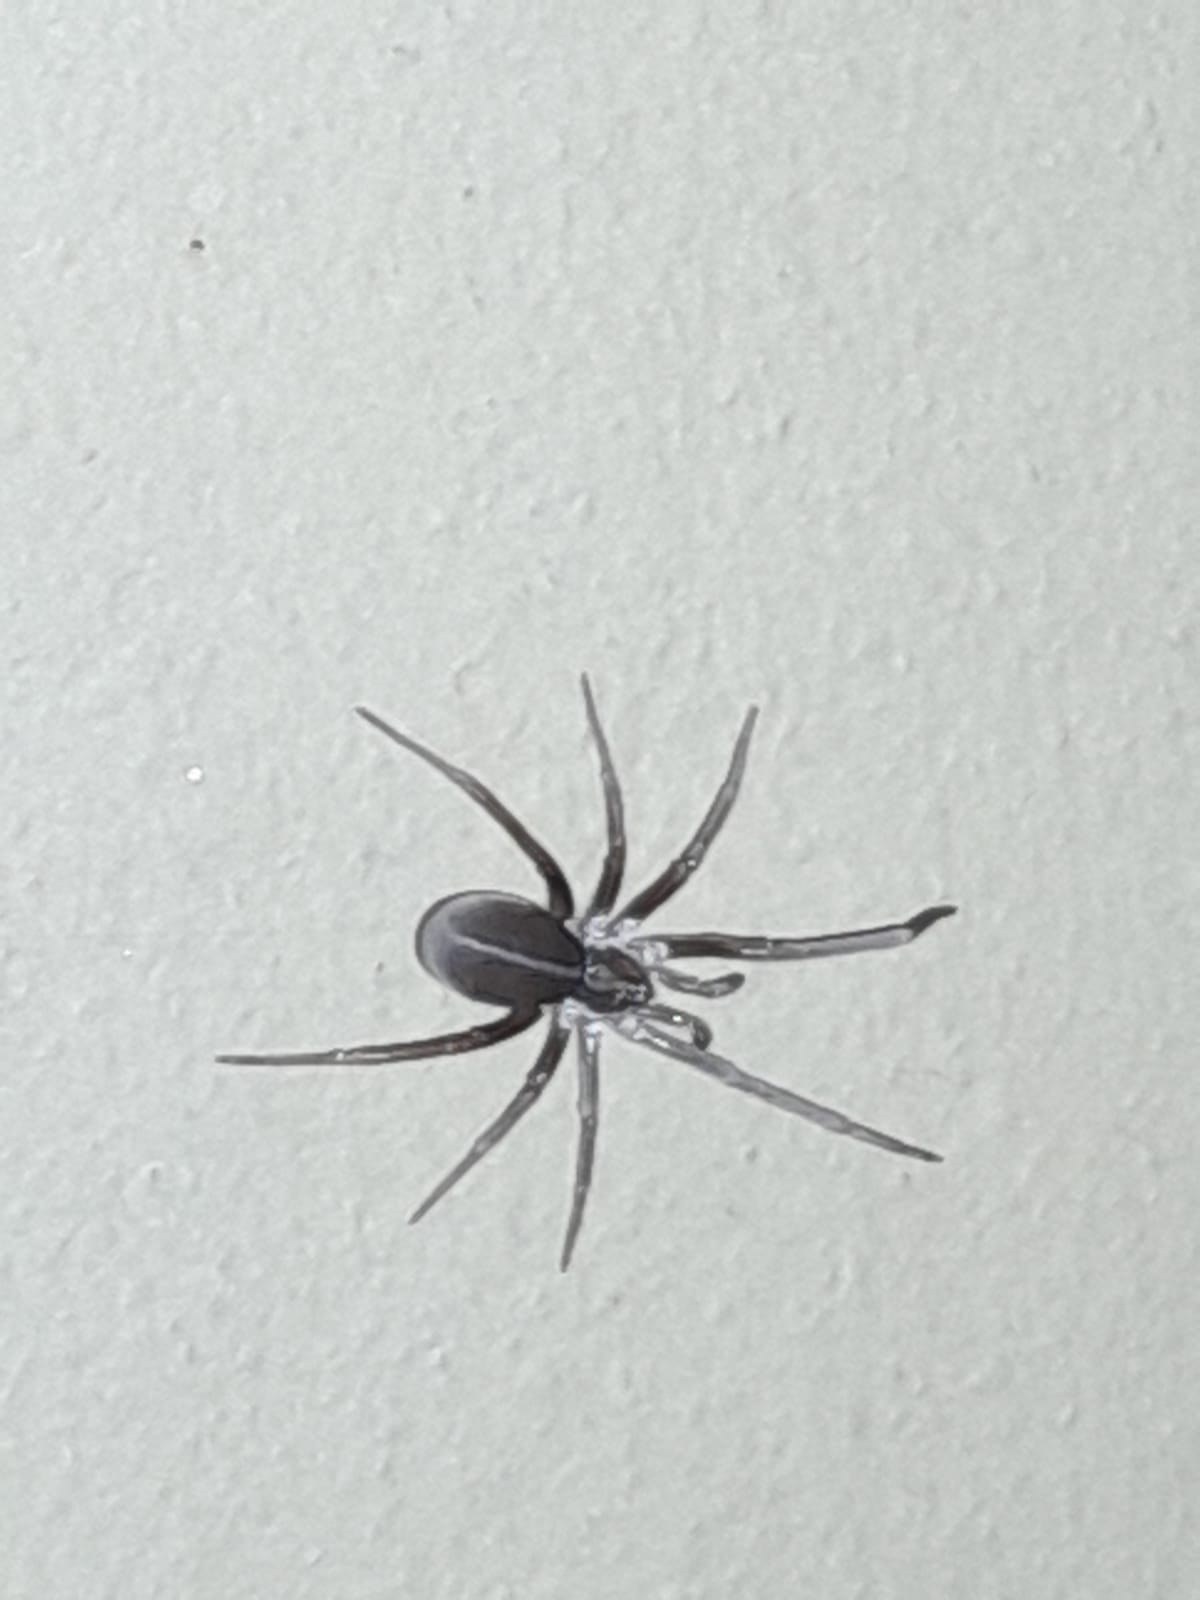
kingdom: Animalia
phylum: Arthropoda
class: Arachnida
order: Araneae
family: Filistatidae
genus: Kukulcania
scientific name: Kukulcania hibernalis
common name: Crevice weaver
